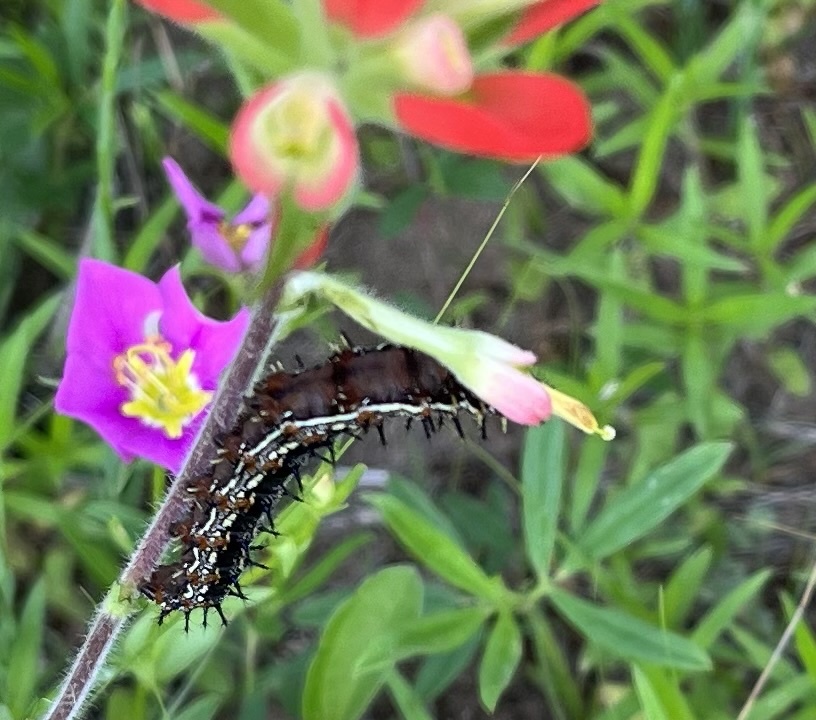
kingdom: Animalia
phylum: Arthropoda
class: Insecta
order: Lepidoptera
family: Nymphalidae
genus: Junonia
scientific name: Junonia coenia
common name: Common buckeye
